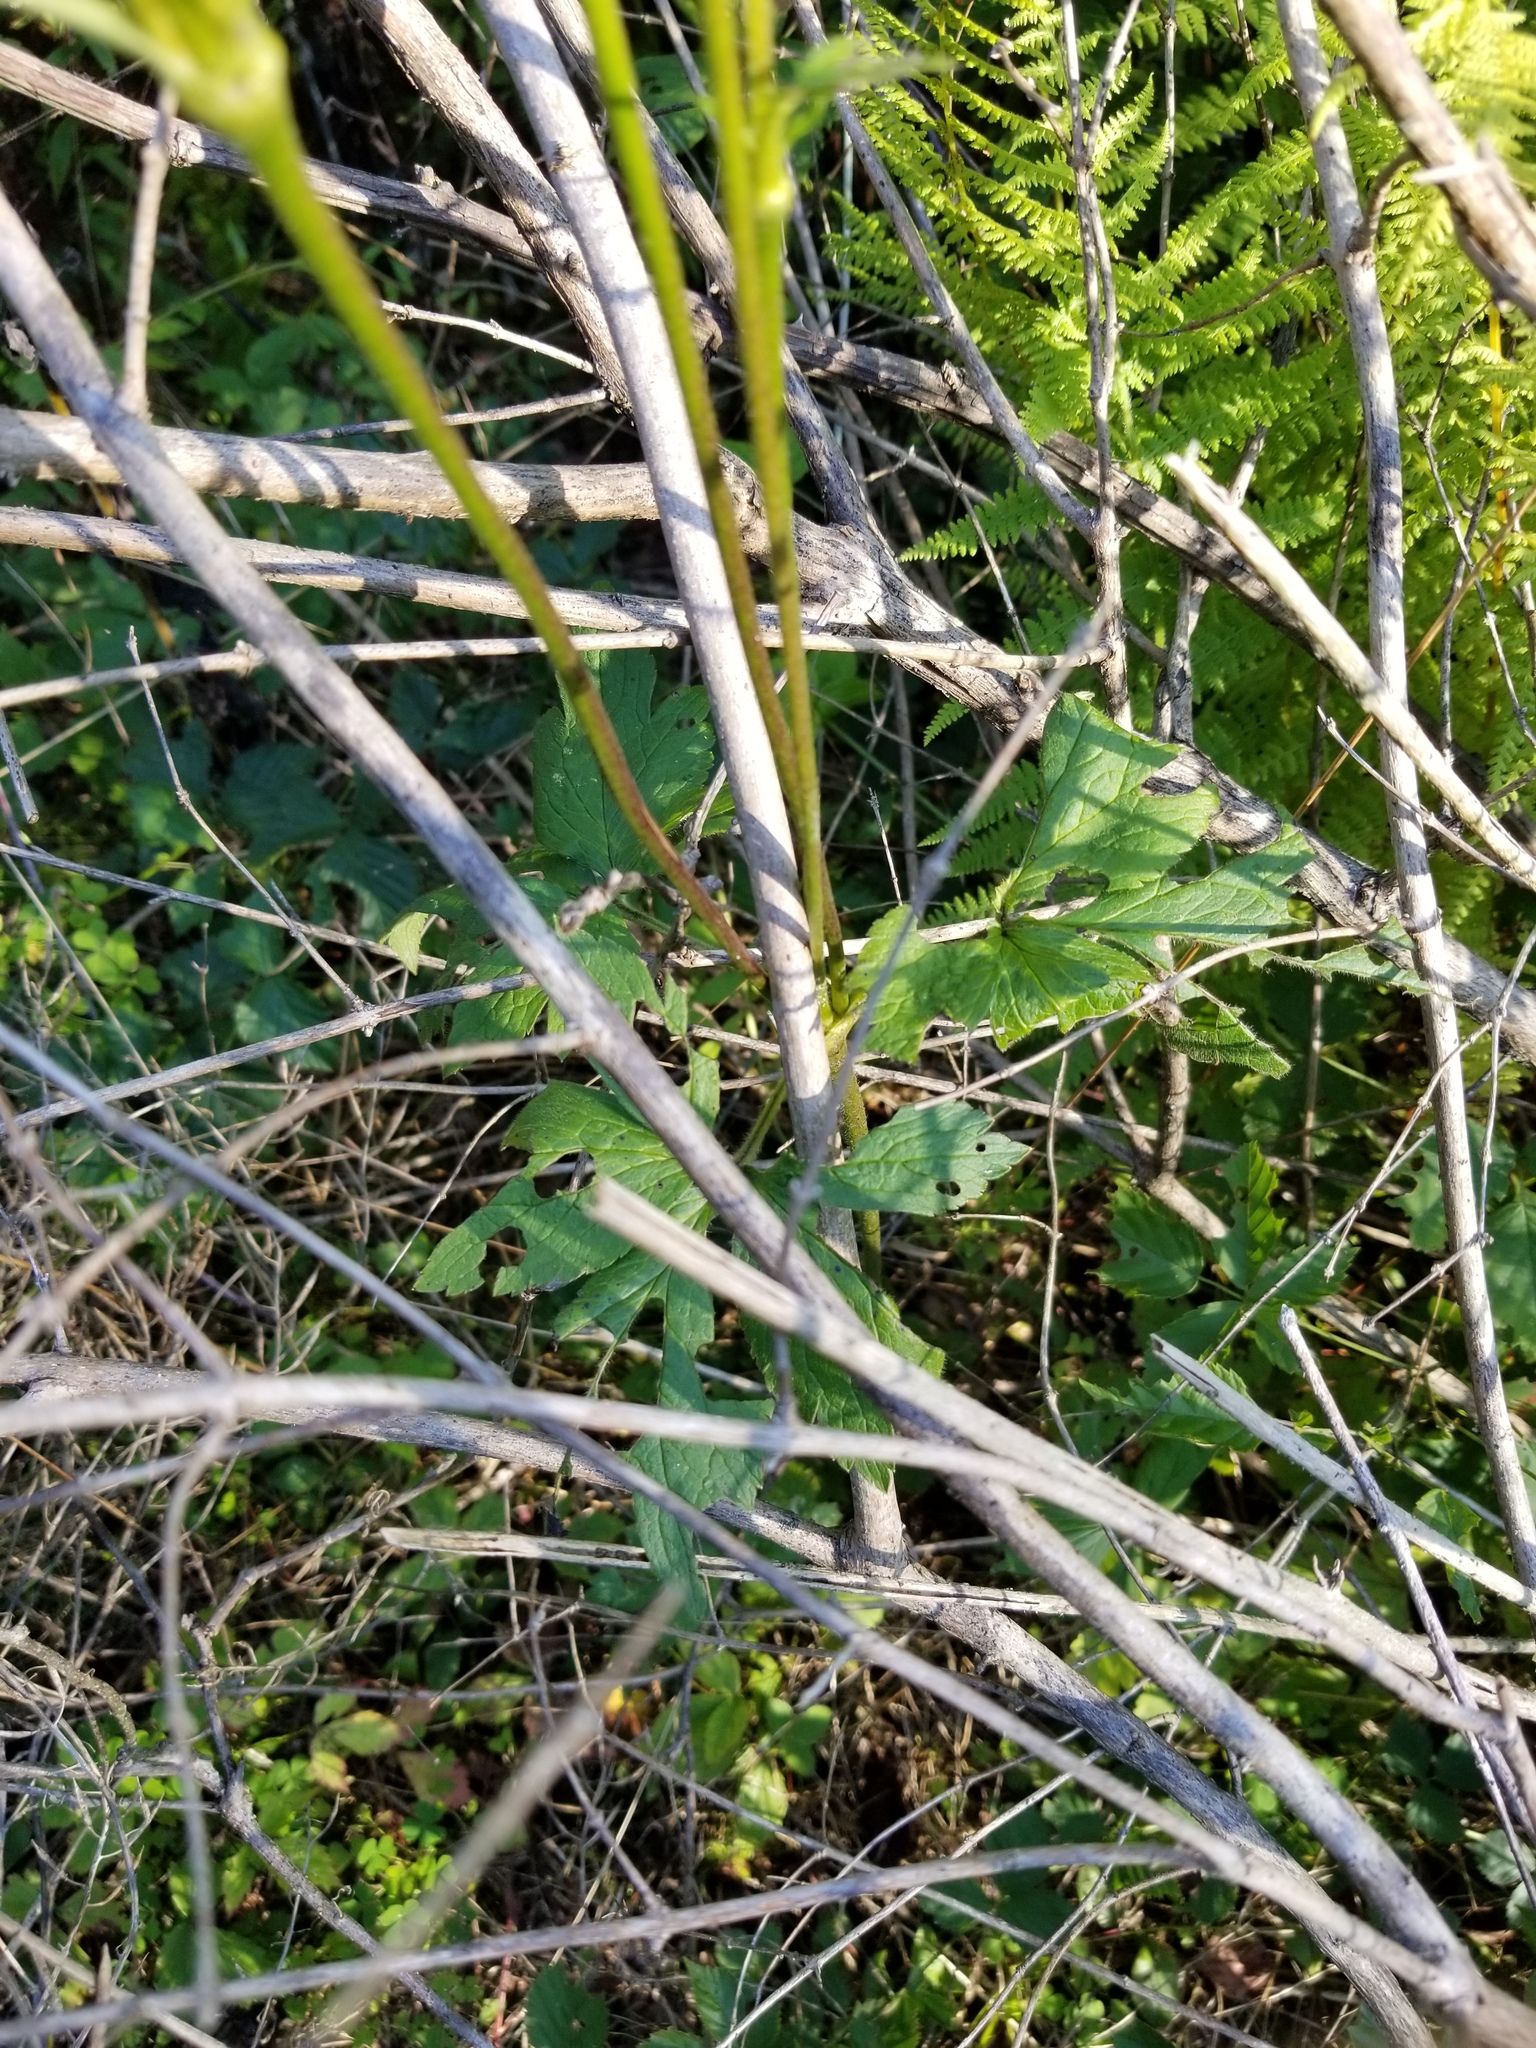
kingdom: Plantae
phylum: Tracheophyta
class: Magnoliopsida
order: Ranunculales
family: Ranunculaceae
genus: Anemone
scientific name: Anemone virginiana
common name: Tall anemone
